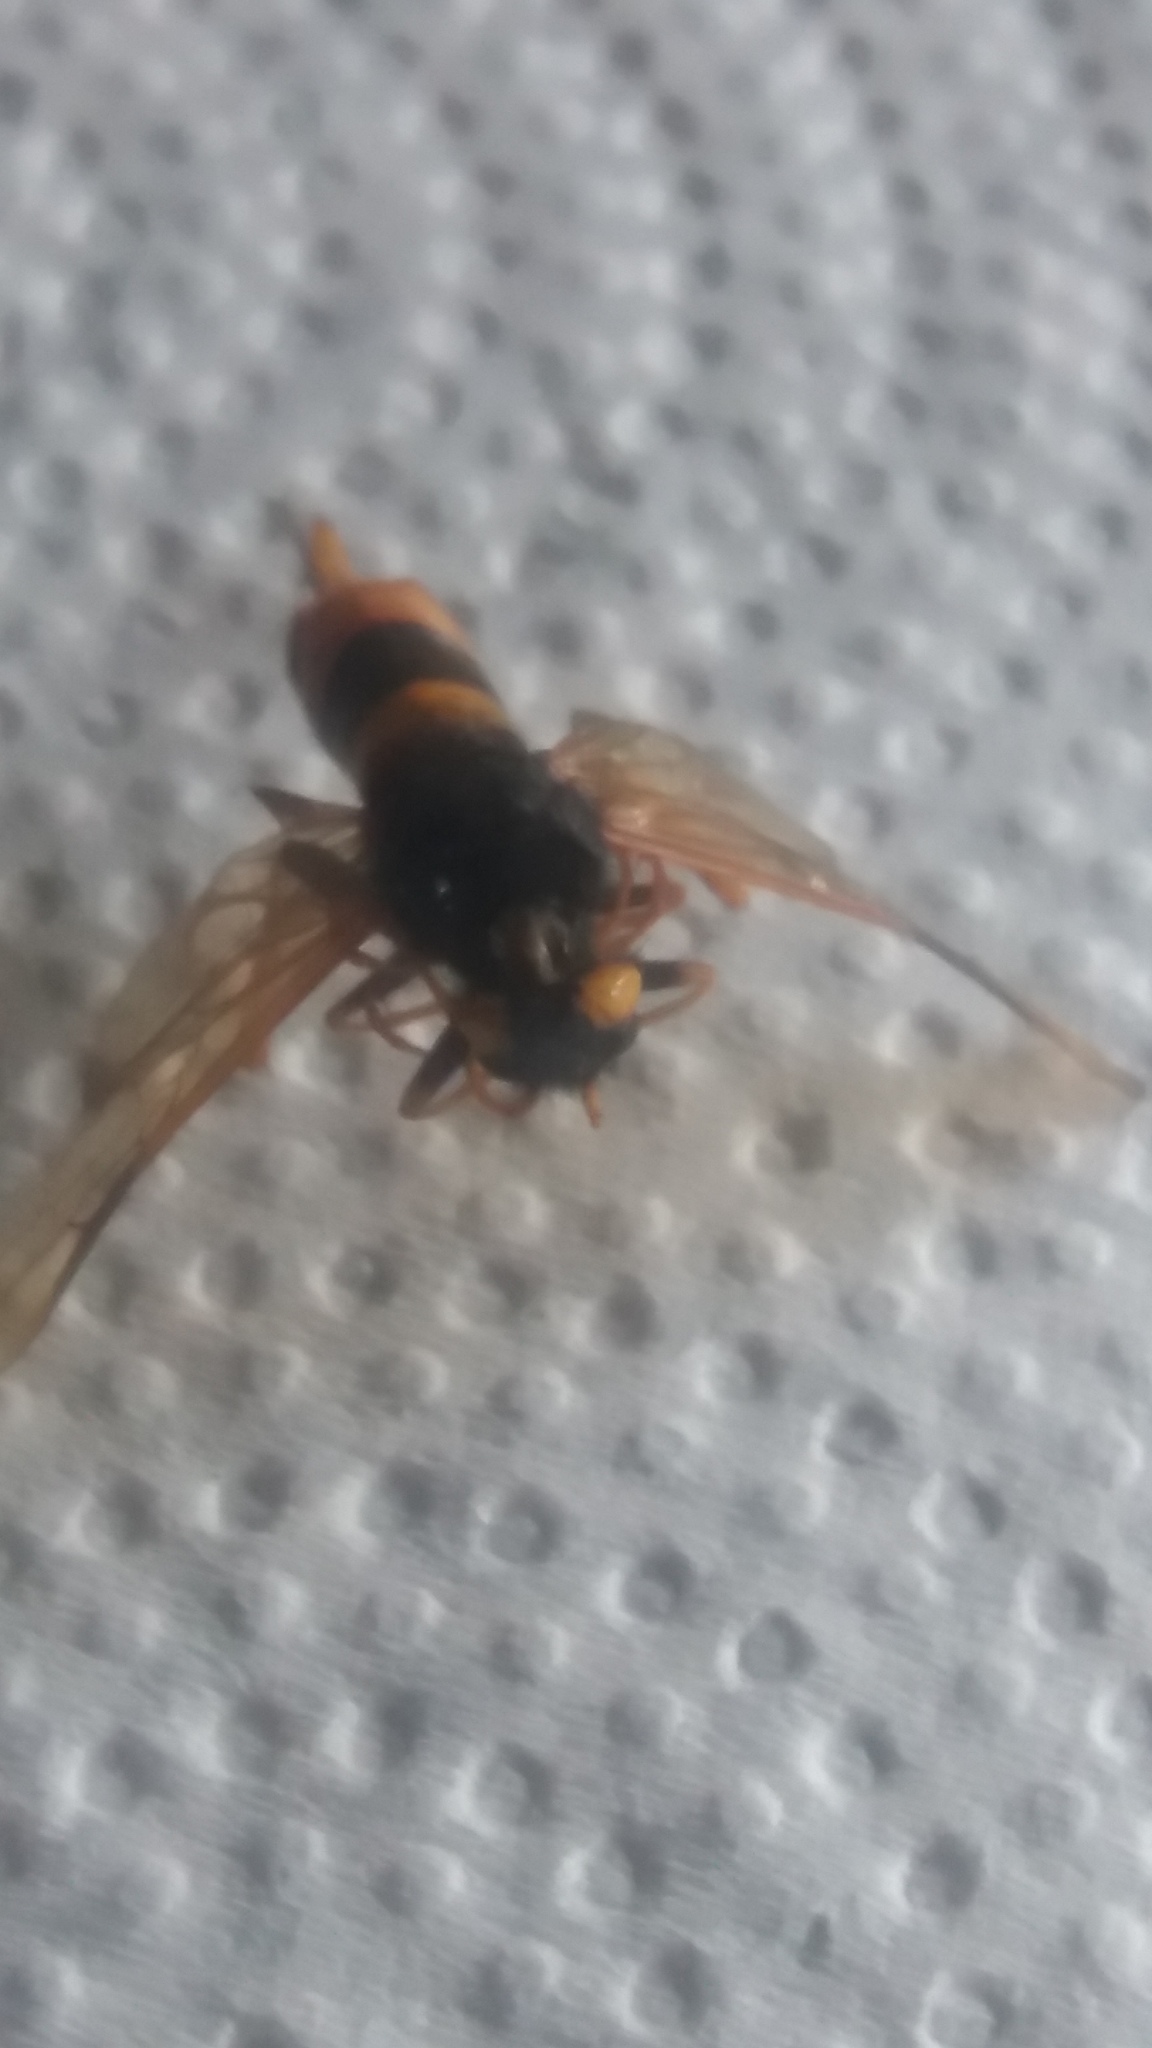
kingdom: Animalia
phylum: Arthropoda
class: Insecta
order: Hymenoptera
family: Siricidae
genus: Urocerus
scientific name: Urocerus gigas
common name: Giant woodwasp
